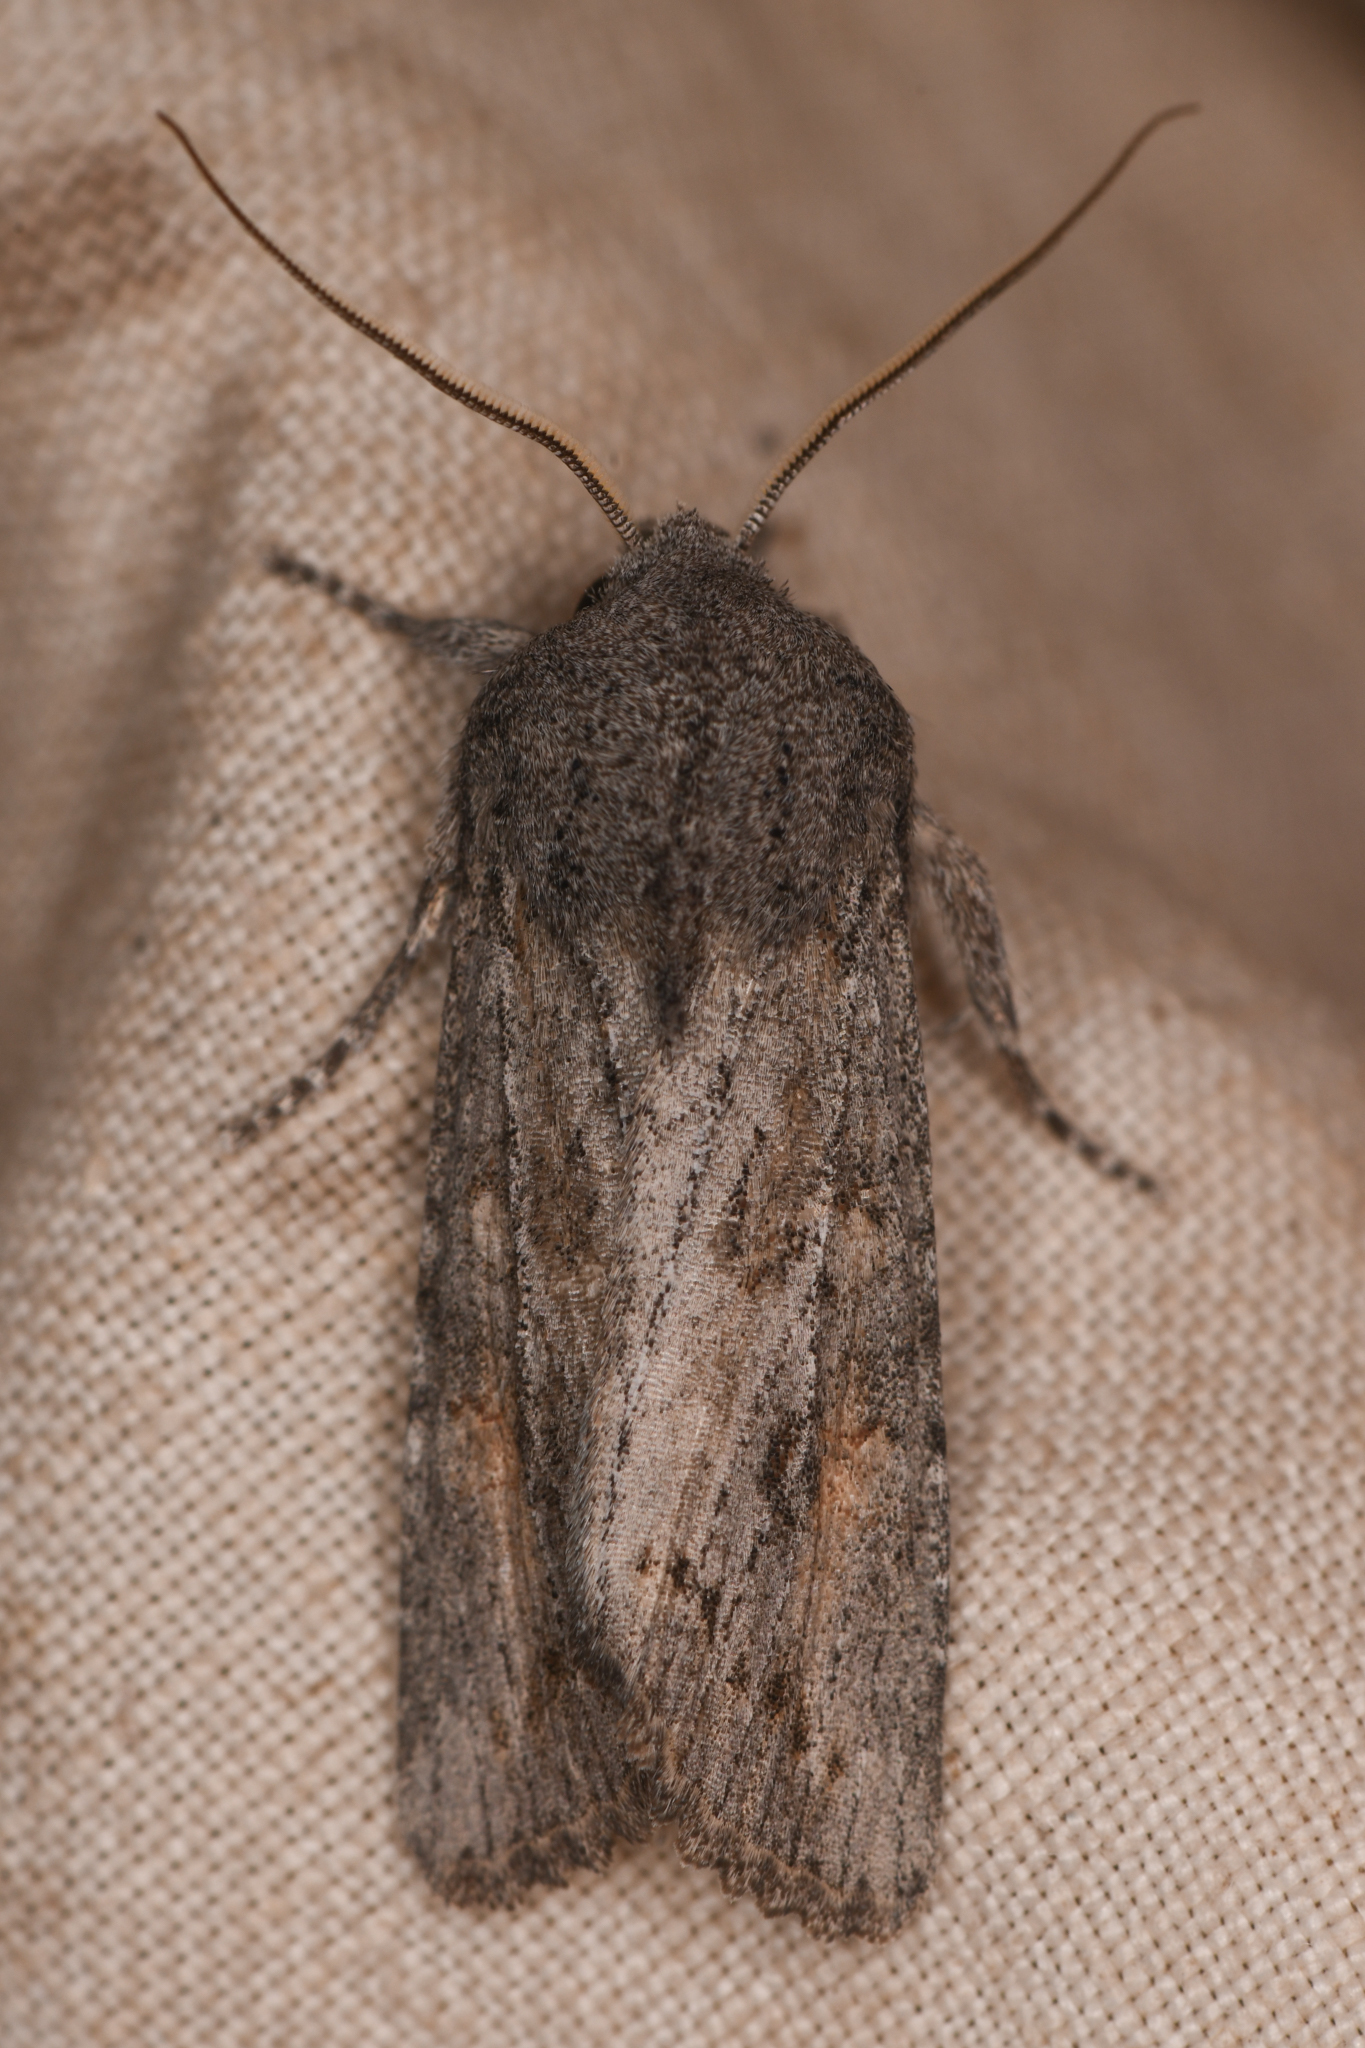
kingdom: Animalia
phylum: Arthropoda
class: Insecta
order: Lepidoptera
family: Noctuidae
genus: Egira
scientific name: Egira curialis
